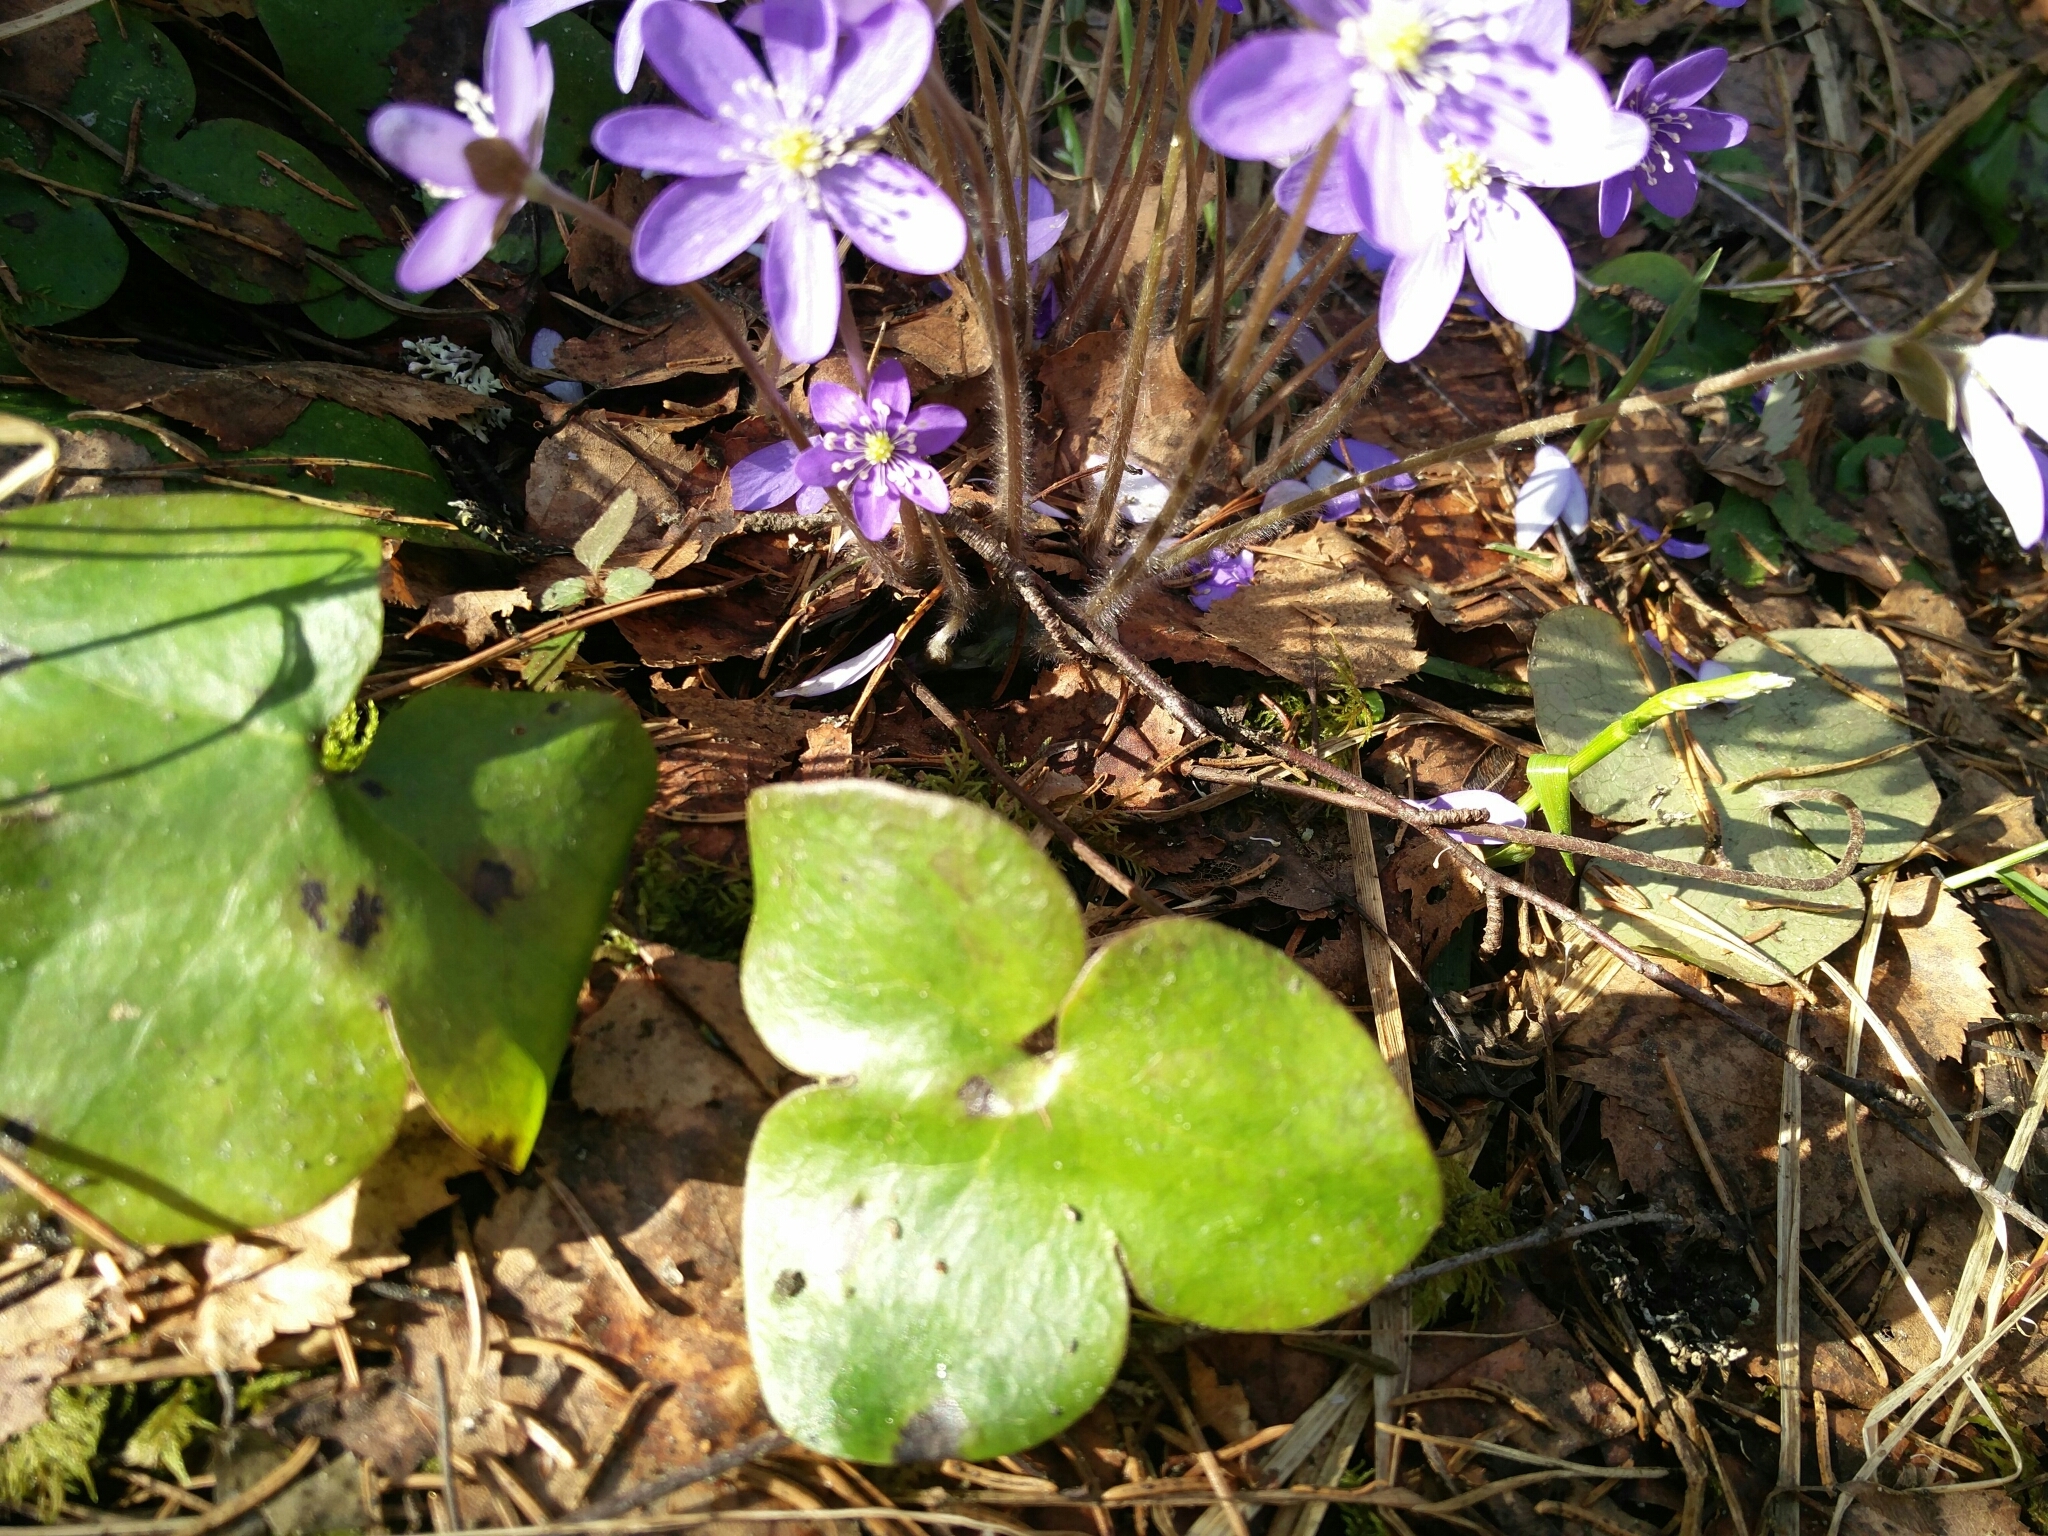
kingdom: Plantae
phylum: Tracheophyta
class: Magnoliopsida
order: Ranunculales
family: Ranunculaceae
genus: Hepatica
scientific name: Hepatica nobilis
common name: Liverleaf
